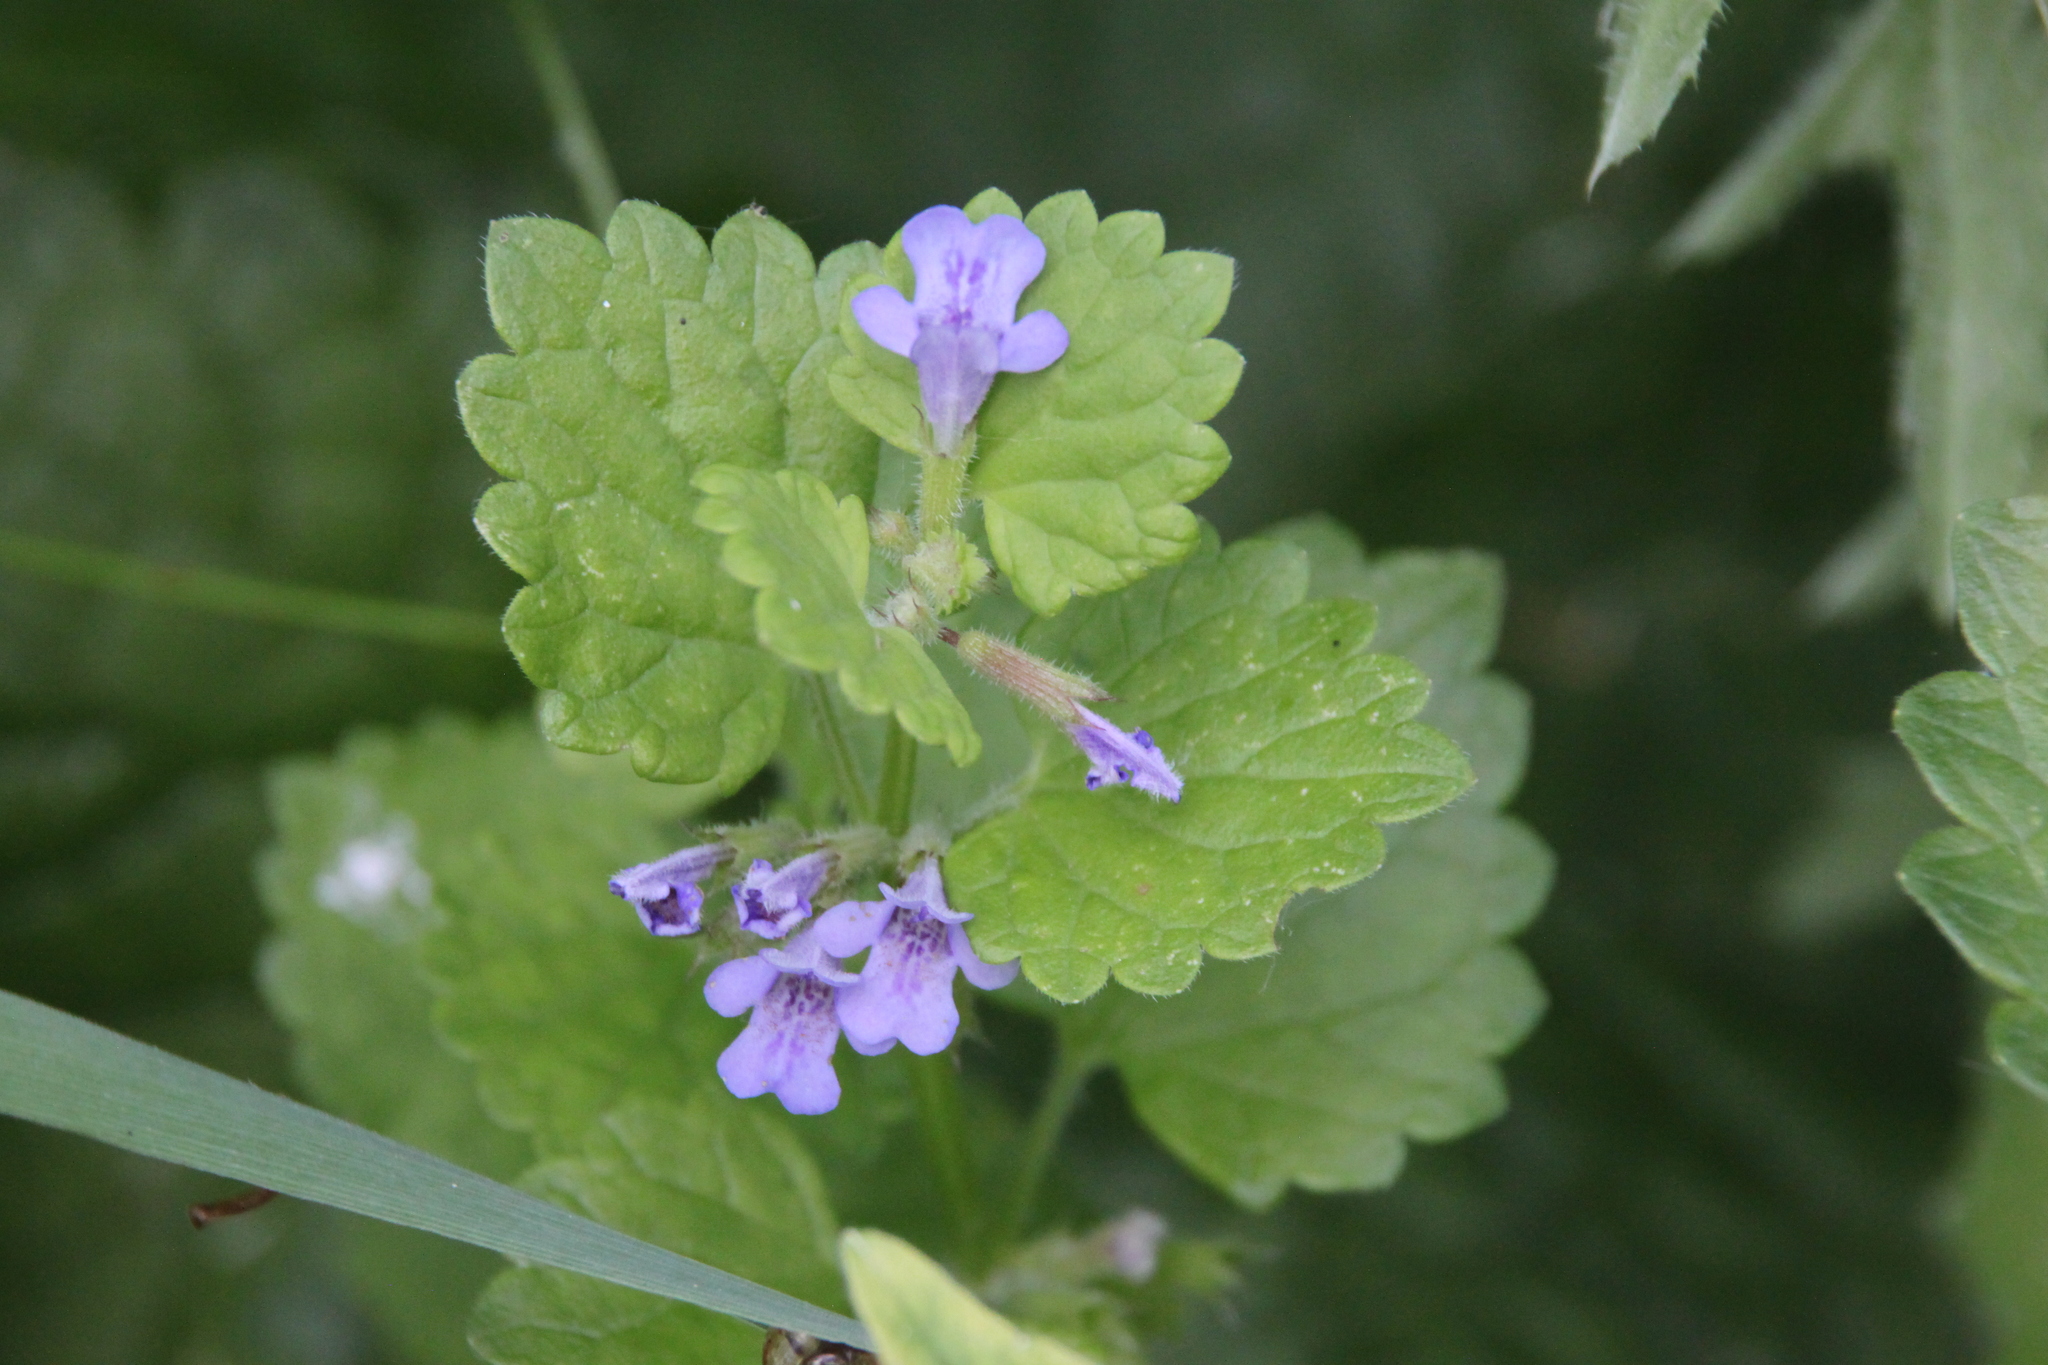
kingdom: Plantae
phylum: Tracheophyta
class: Magnoliopsida
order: Lamiales
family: Lamiaceae
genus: Glechoma
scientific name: Glechoma hederacea
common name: Ground ivy
